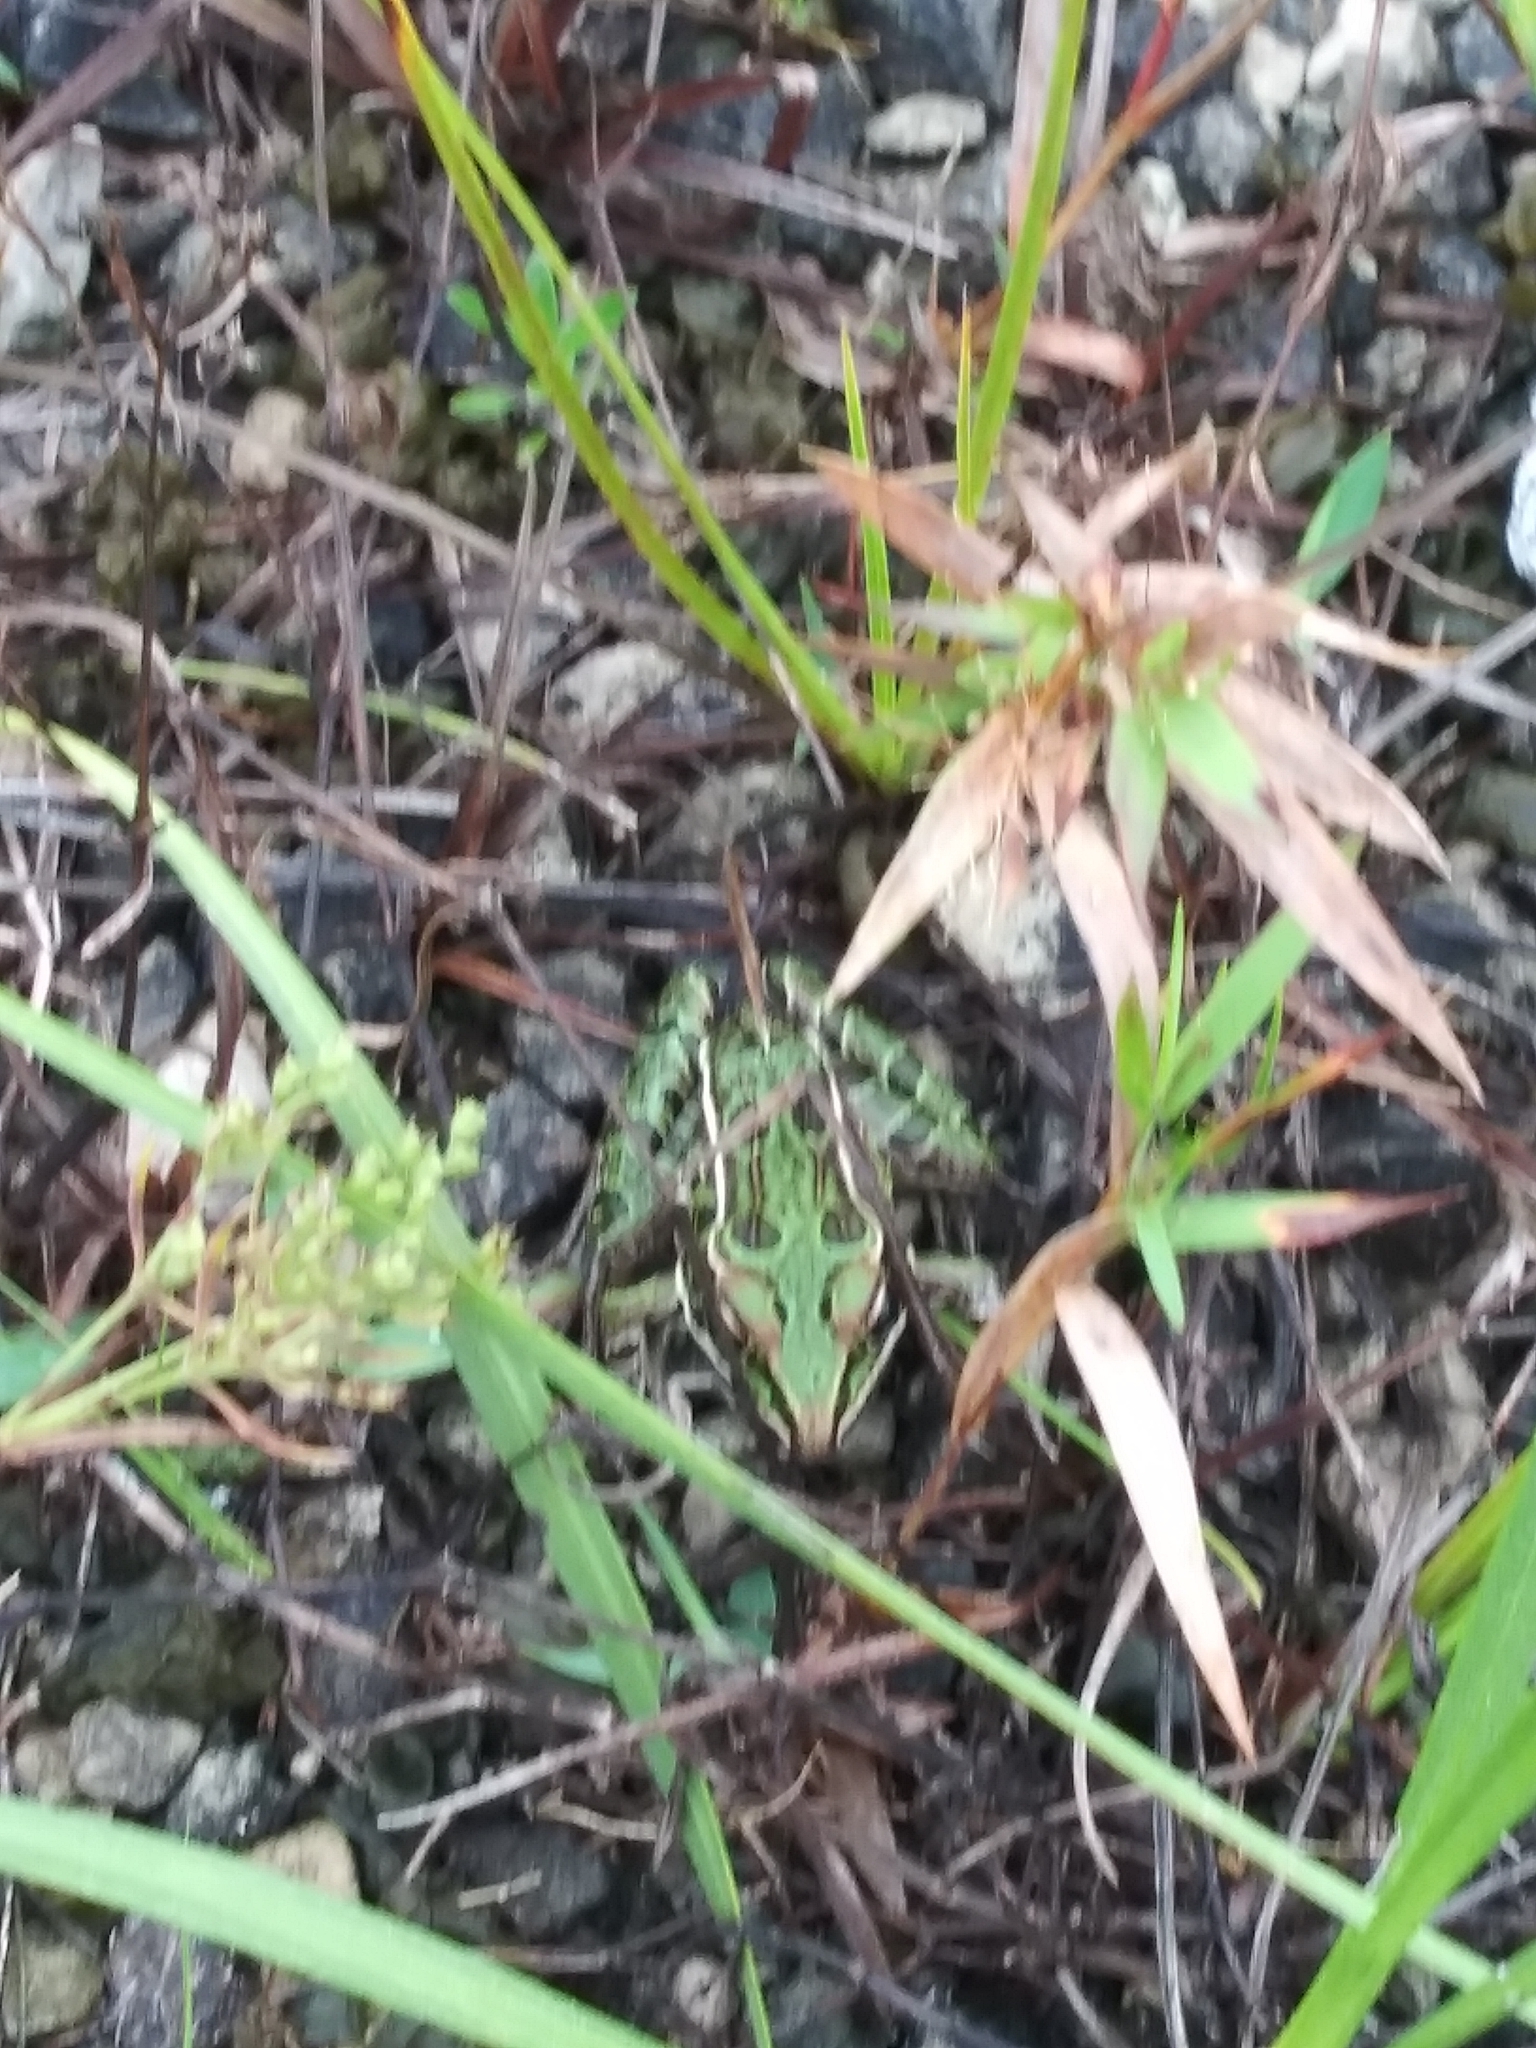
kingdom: Animalia
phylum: Chordata
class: Amphibia
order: Anura
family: Ranidae
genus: Lithobates
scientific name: Lithobates pipiens
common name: Northern leopard frog
